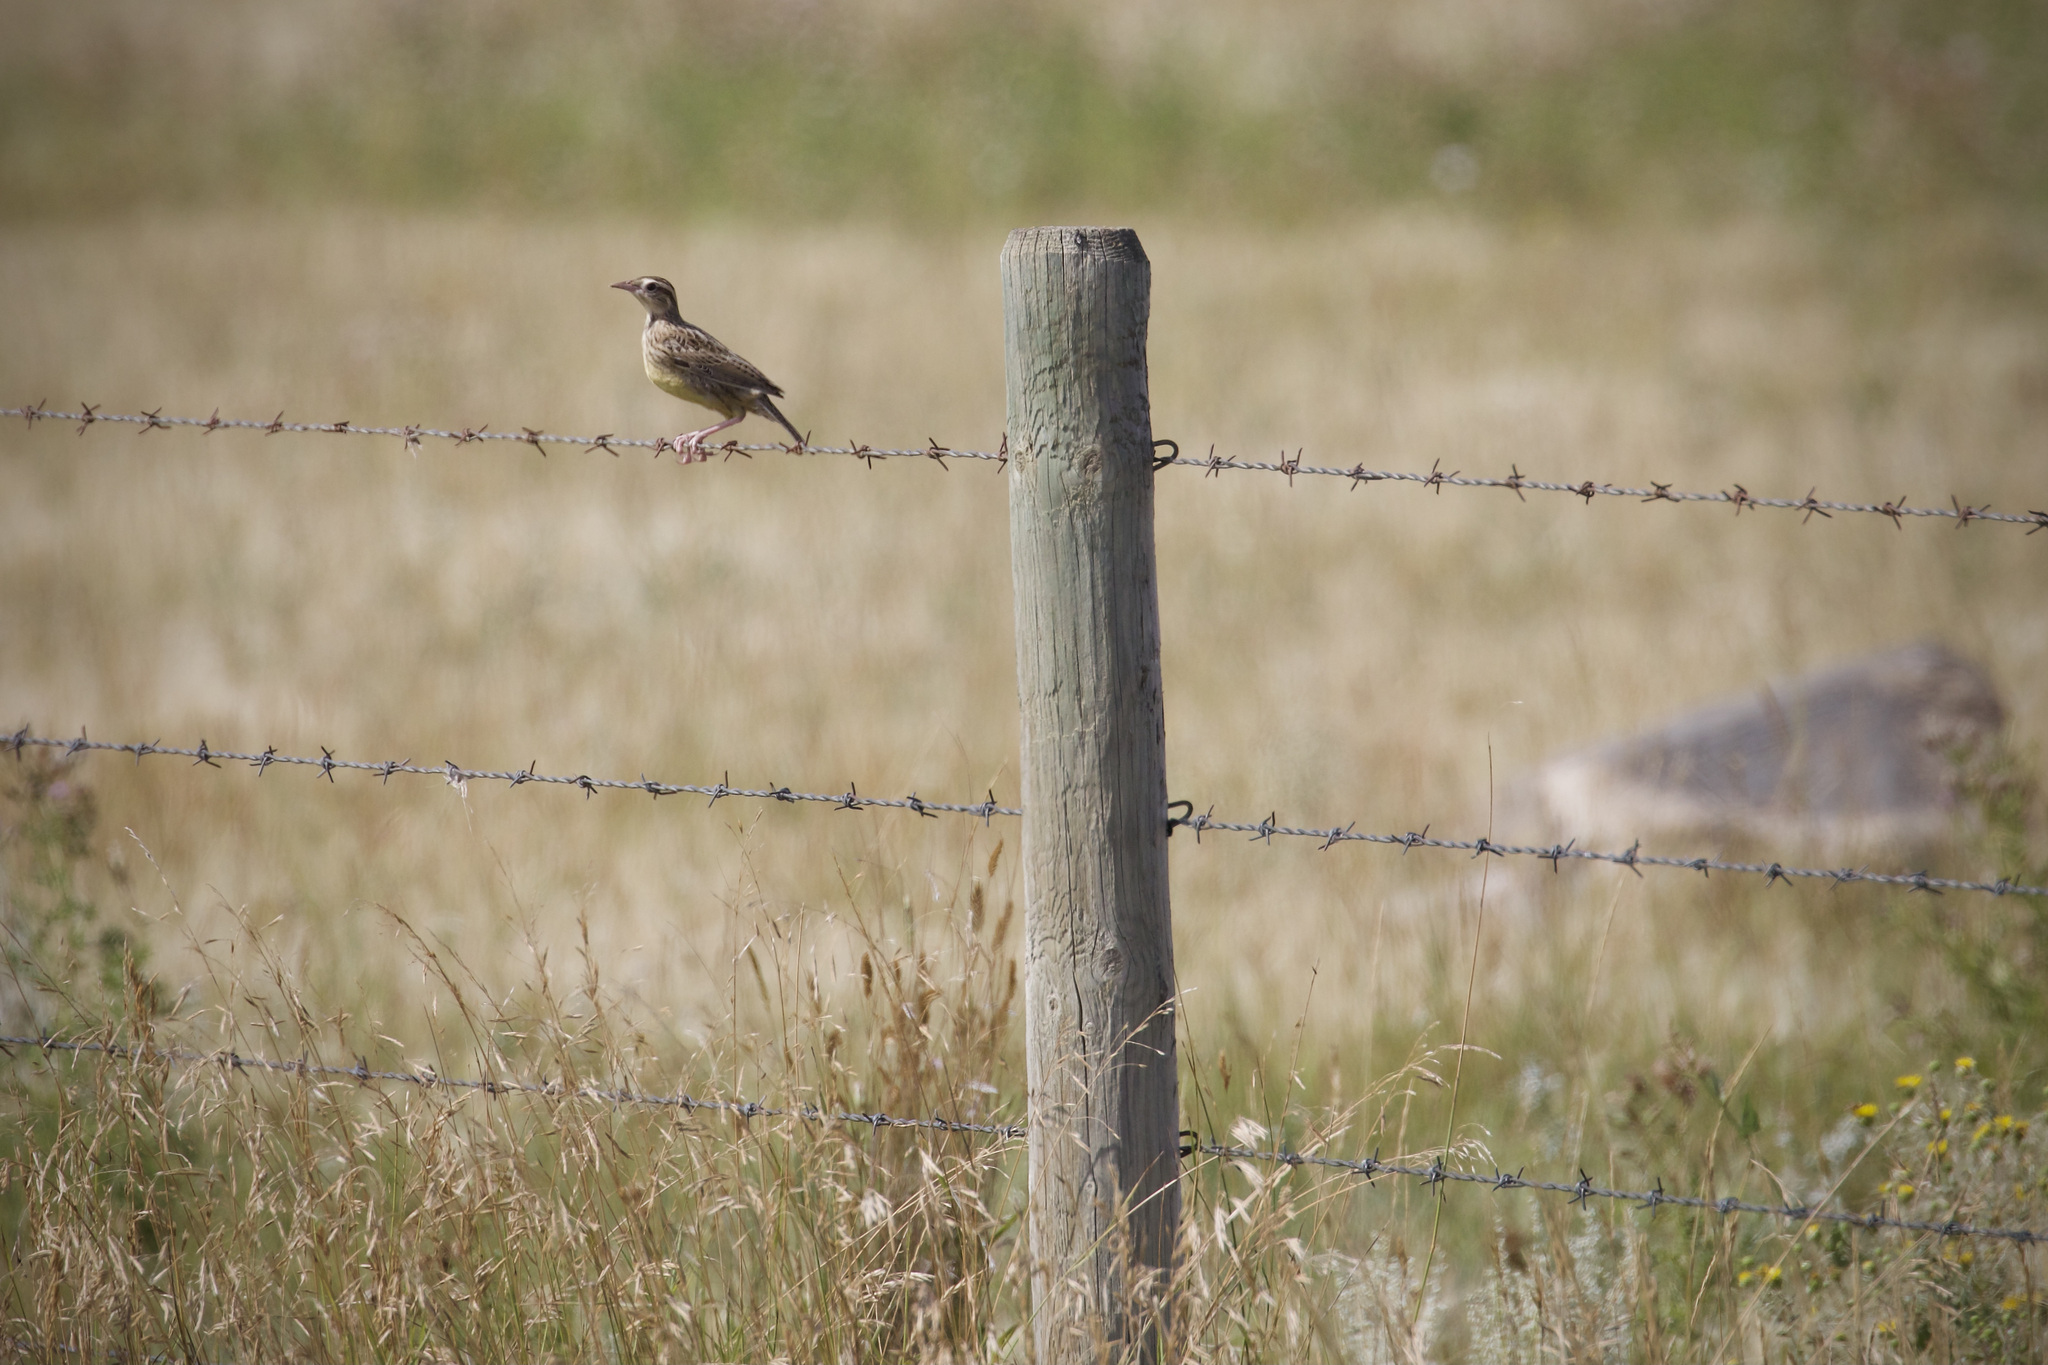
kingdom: Animalia
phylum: Chordata
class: Aves
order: Passeriformes
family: Icteridae
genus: Sturnella
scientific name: Sturnella neglecta
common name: Western meadowlark
